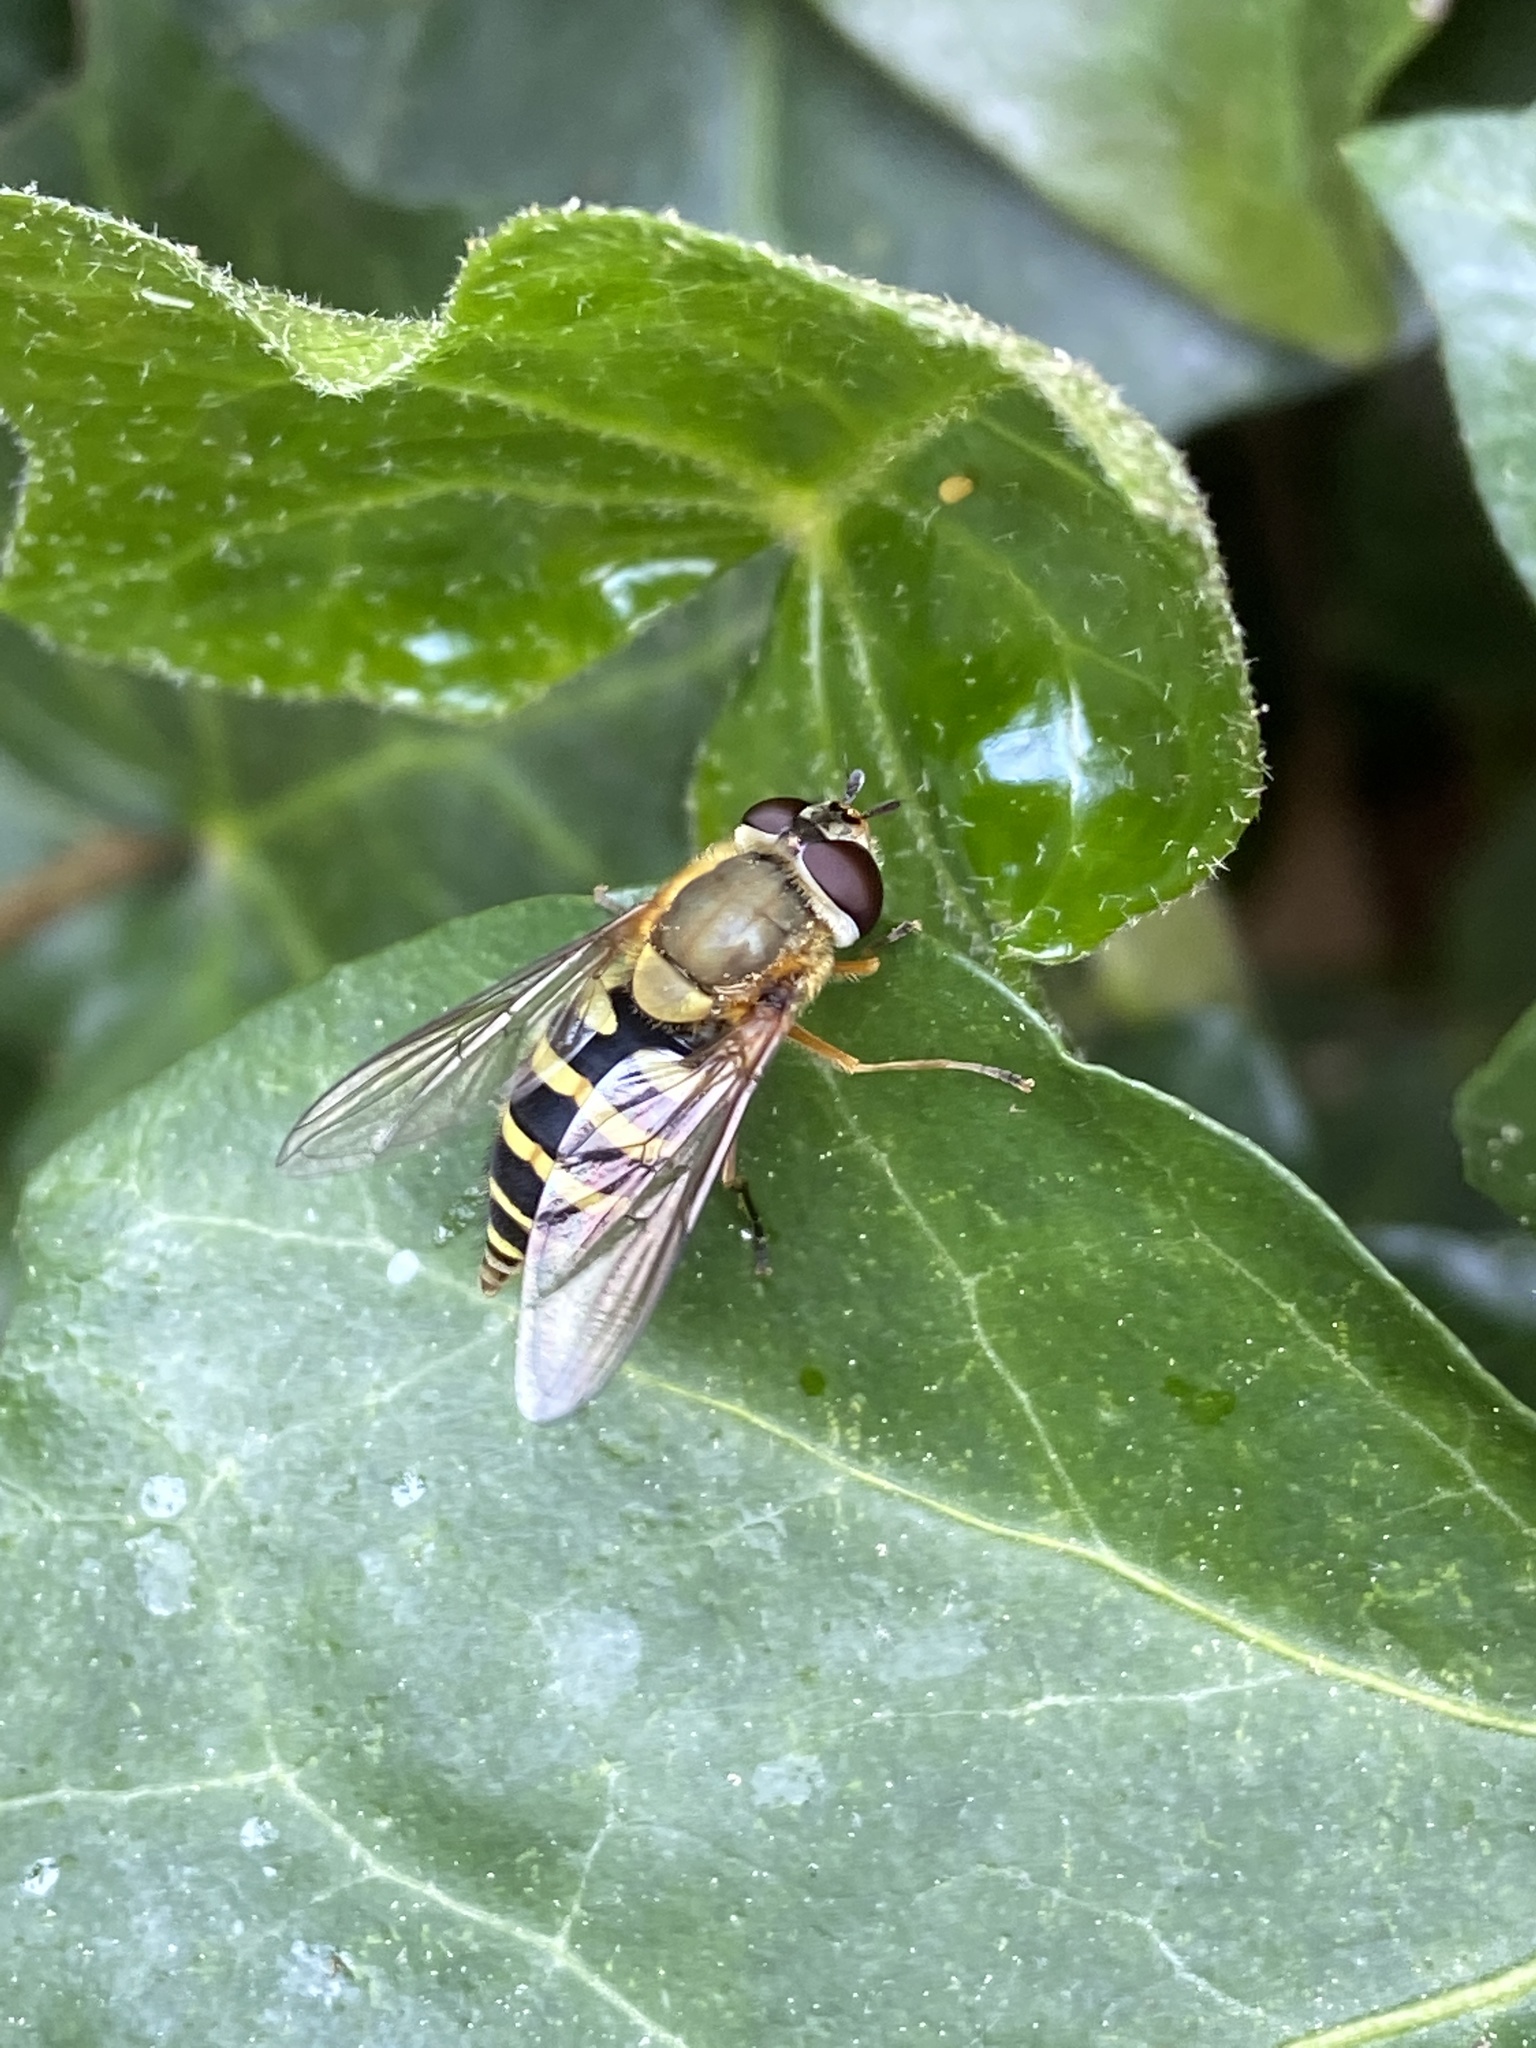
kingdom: Animalia
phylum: Arthropoda
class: Insecta
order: Diptera
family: Syrphidae
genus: Syrphus
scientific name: Syrphus
